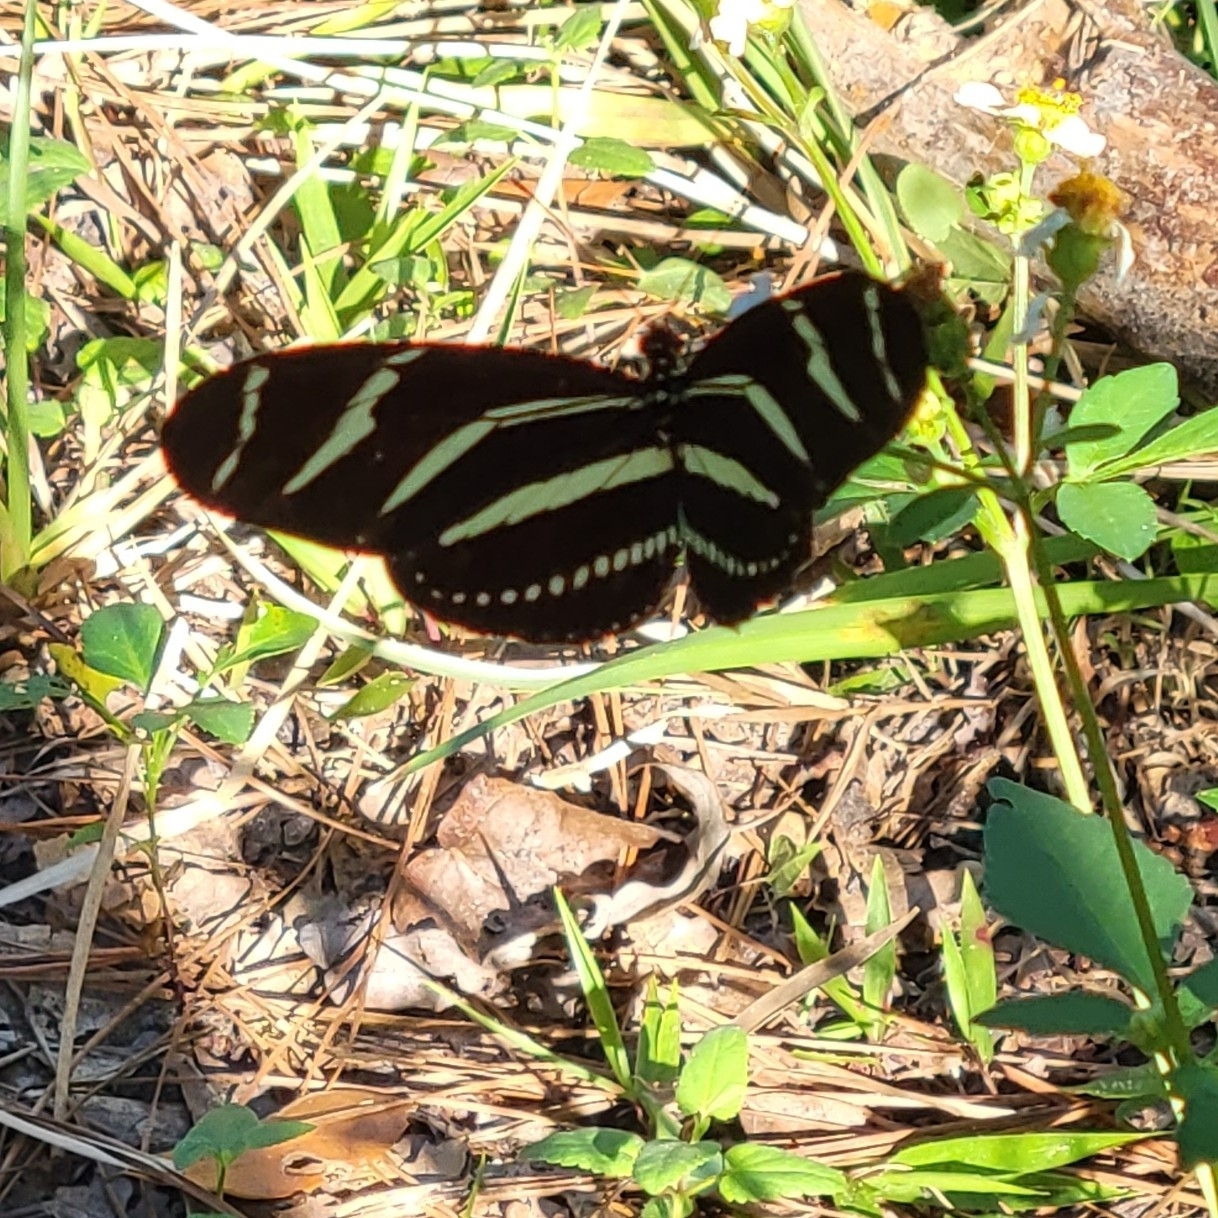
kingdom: Animalia
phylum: Arthropoda
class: Insecta
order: Lepidoptera
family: Nymphalidae
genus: Heliconius
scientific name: Heliconius charithonia
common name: Zebra long wing
